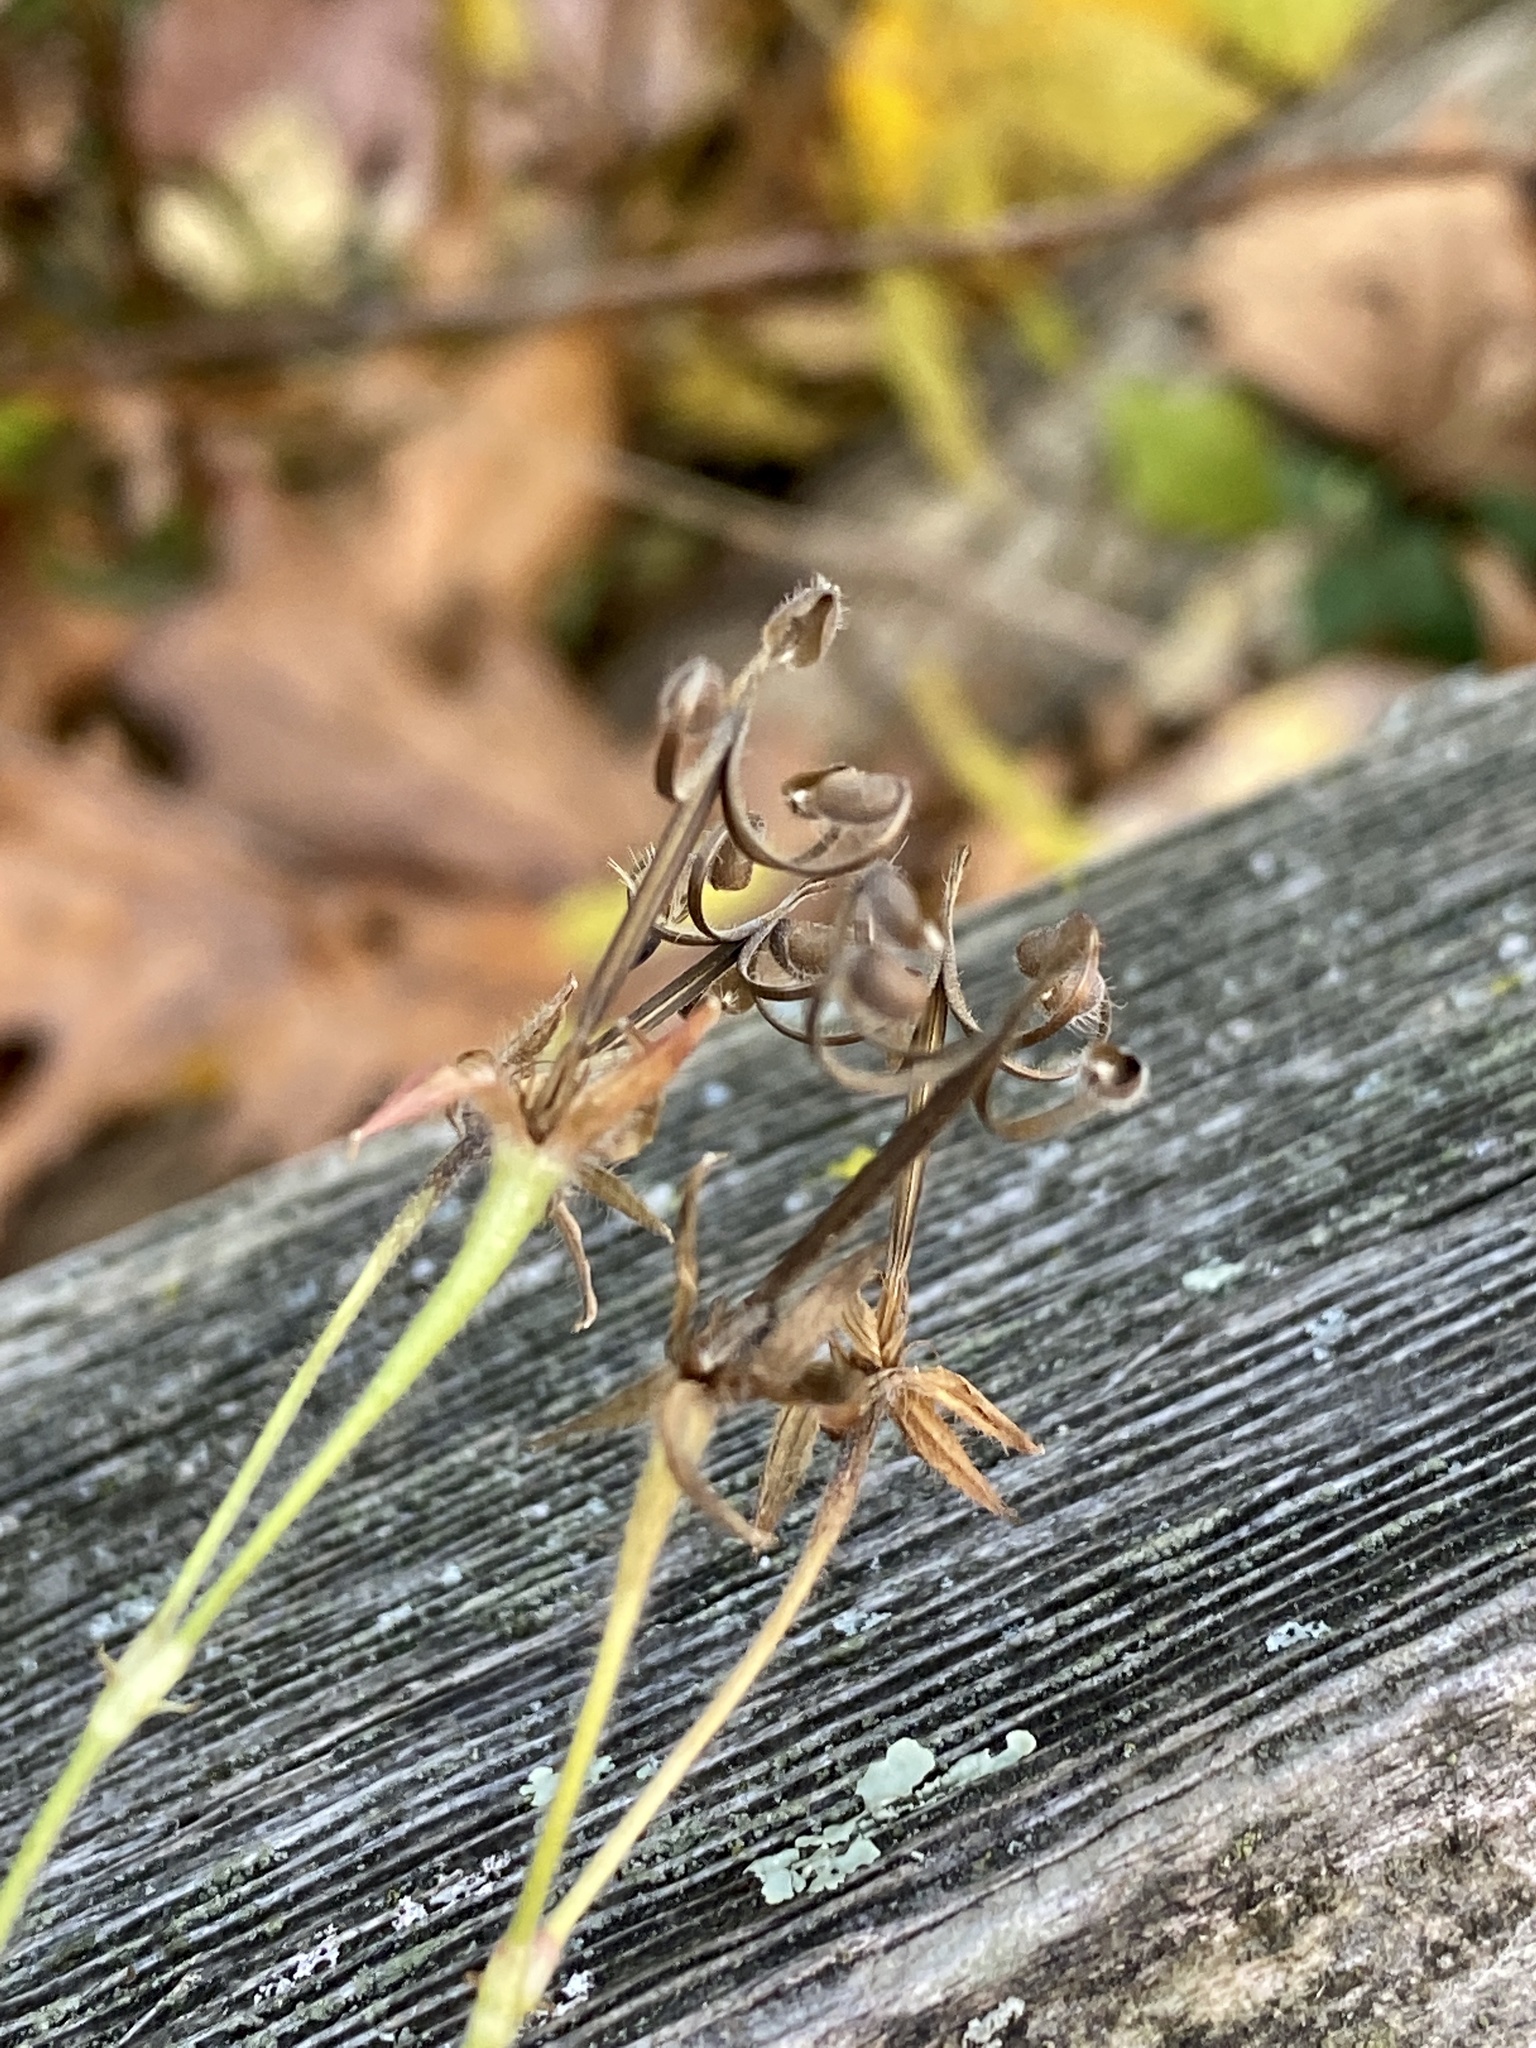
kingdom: Plantae
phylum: Tracheophyta
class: Magnoliopsida
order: Geraniales
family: Geraniaceae
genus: Geranium
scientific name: Geranium thunbergii
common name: Dewdrop crane's-bill
